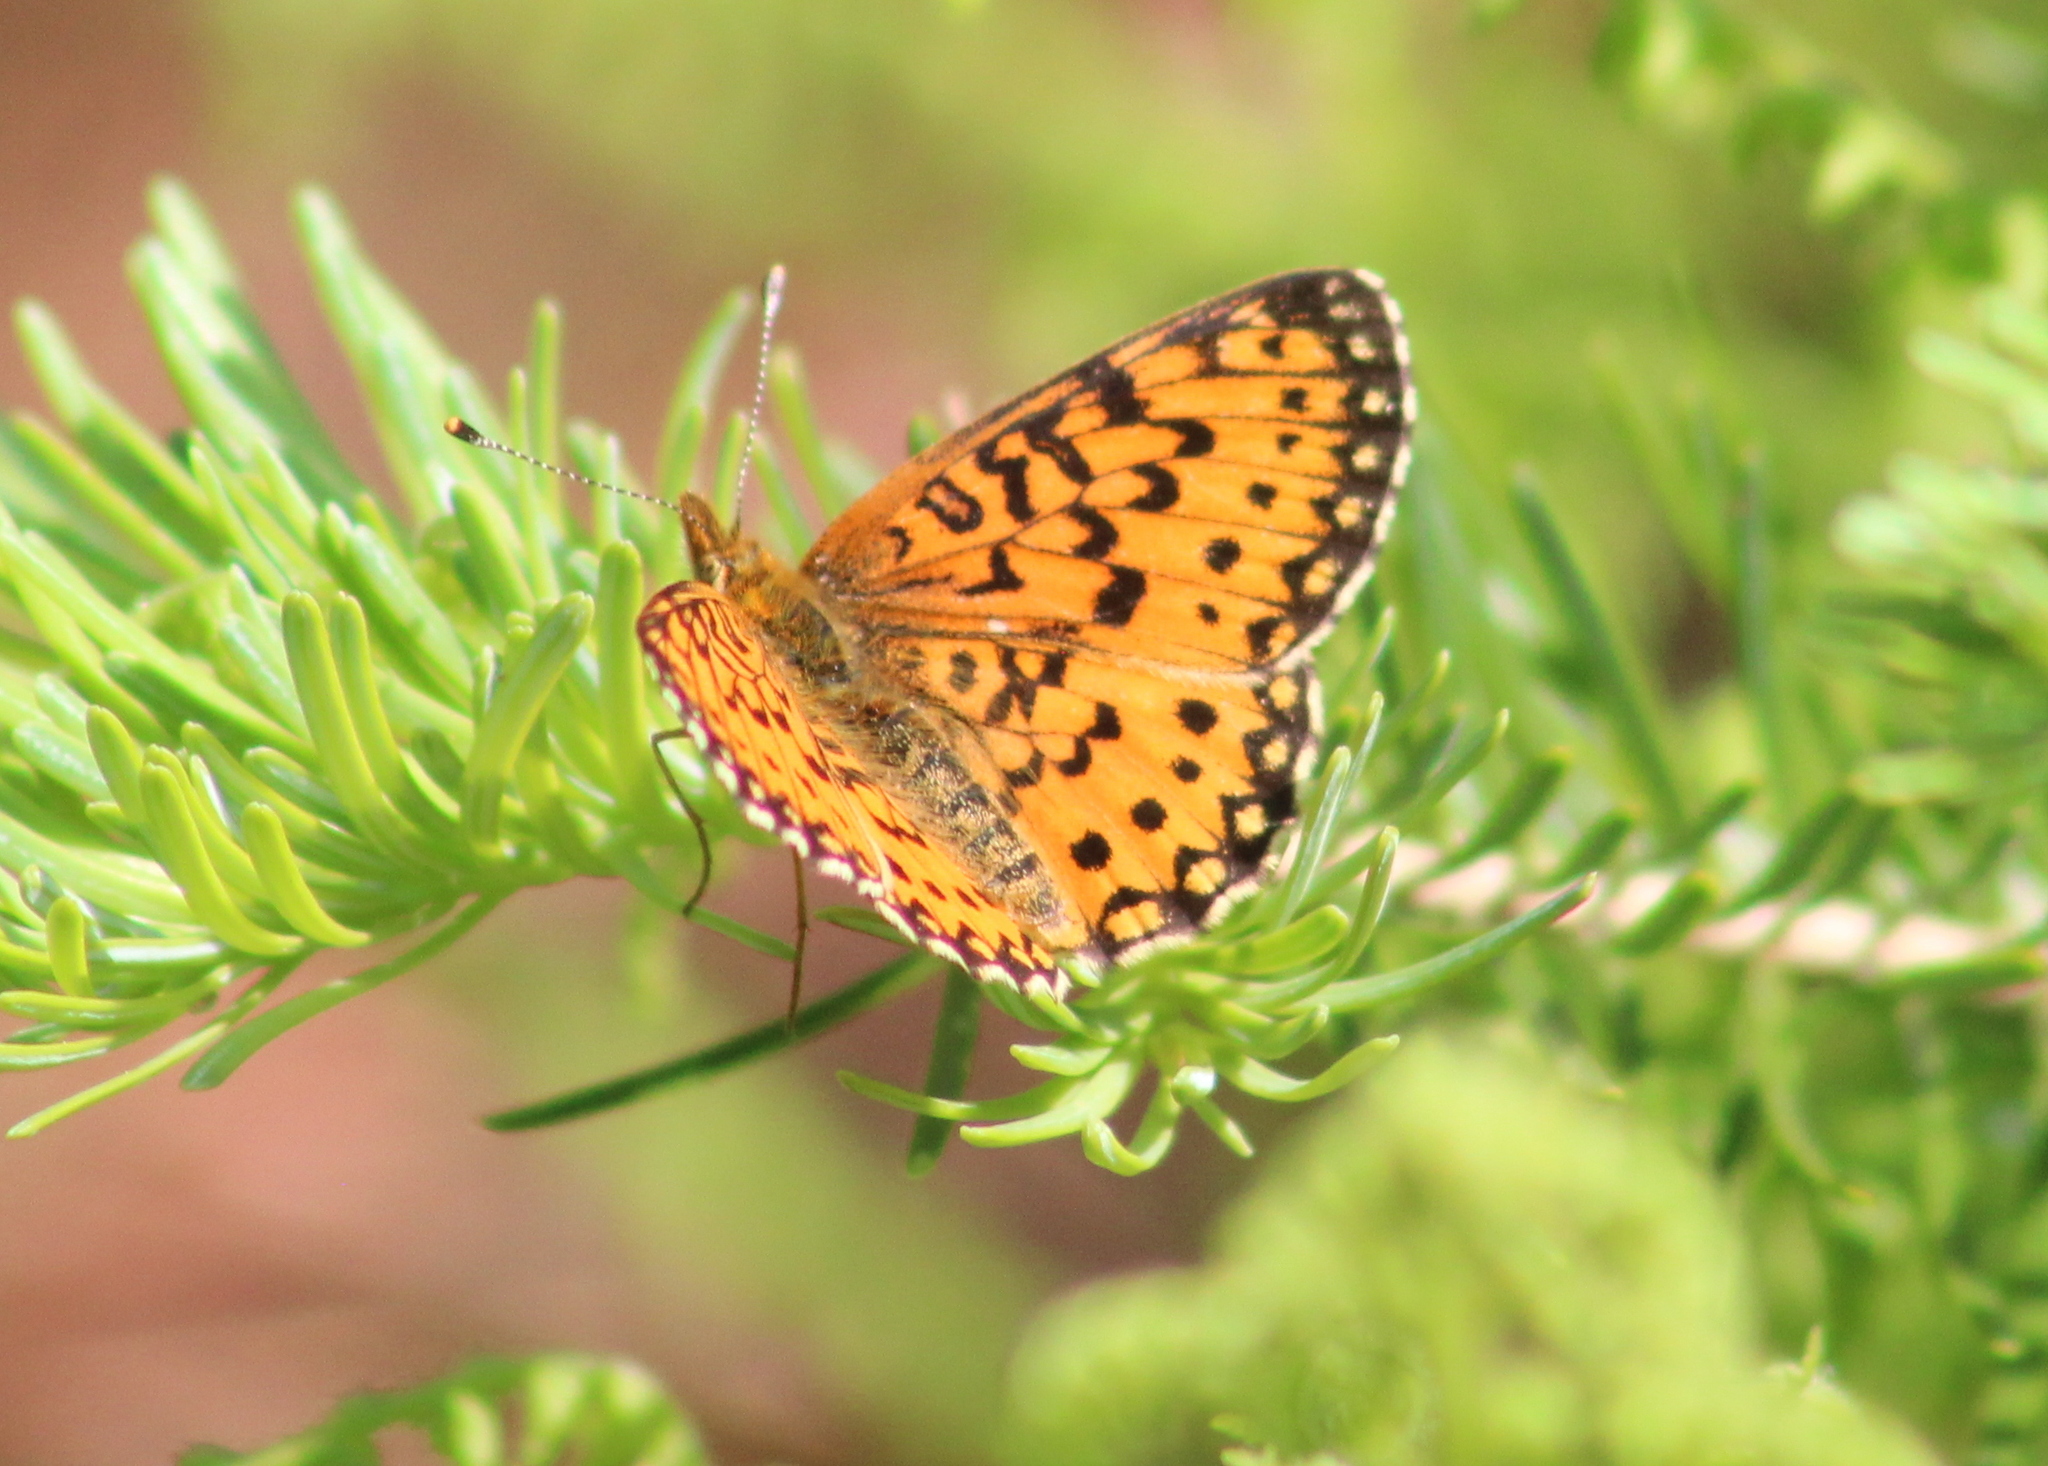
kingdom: Animalia
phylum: Arthropoda
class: Insecta
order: Lepidoptera
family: Nymphalidae
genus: Boloria
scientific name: Boloria
